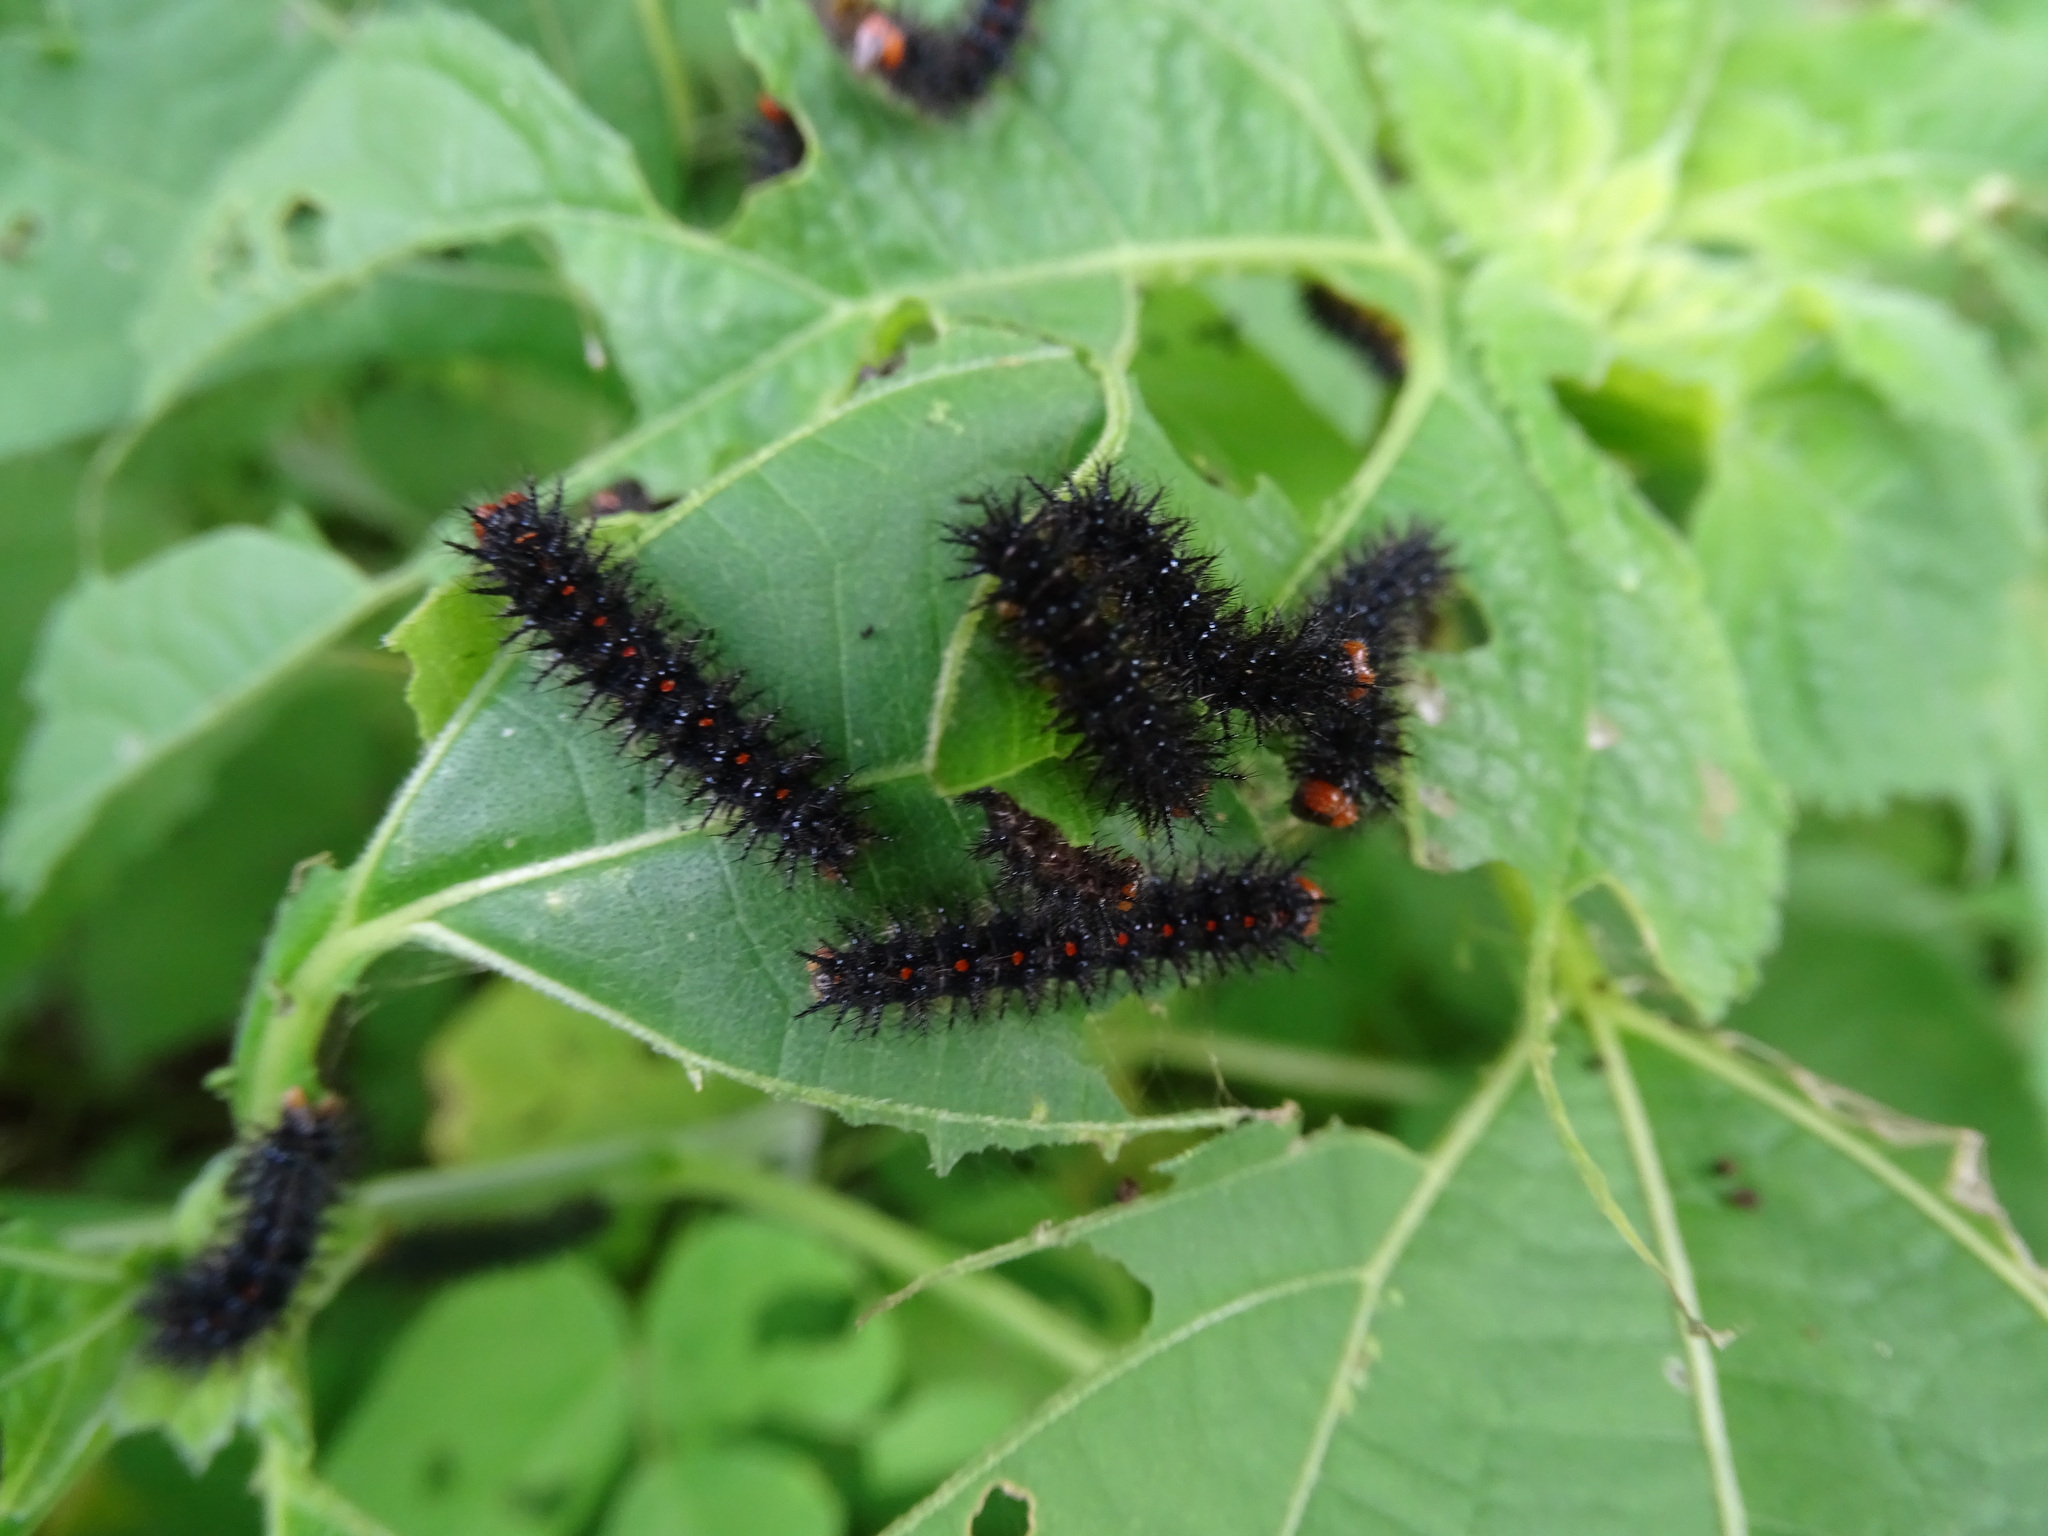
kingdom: Animalia
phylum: Arthropoda
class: Insecta
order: Lepidoptera
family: Nymphalidae
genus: Chlosyne
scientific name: Chlosyne lacinia
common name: Bordered patch
